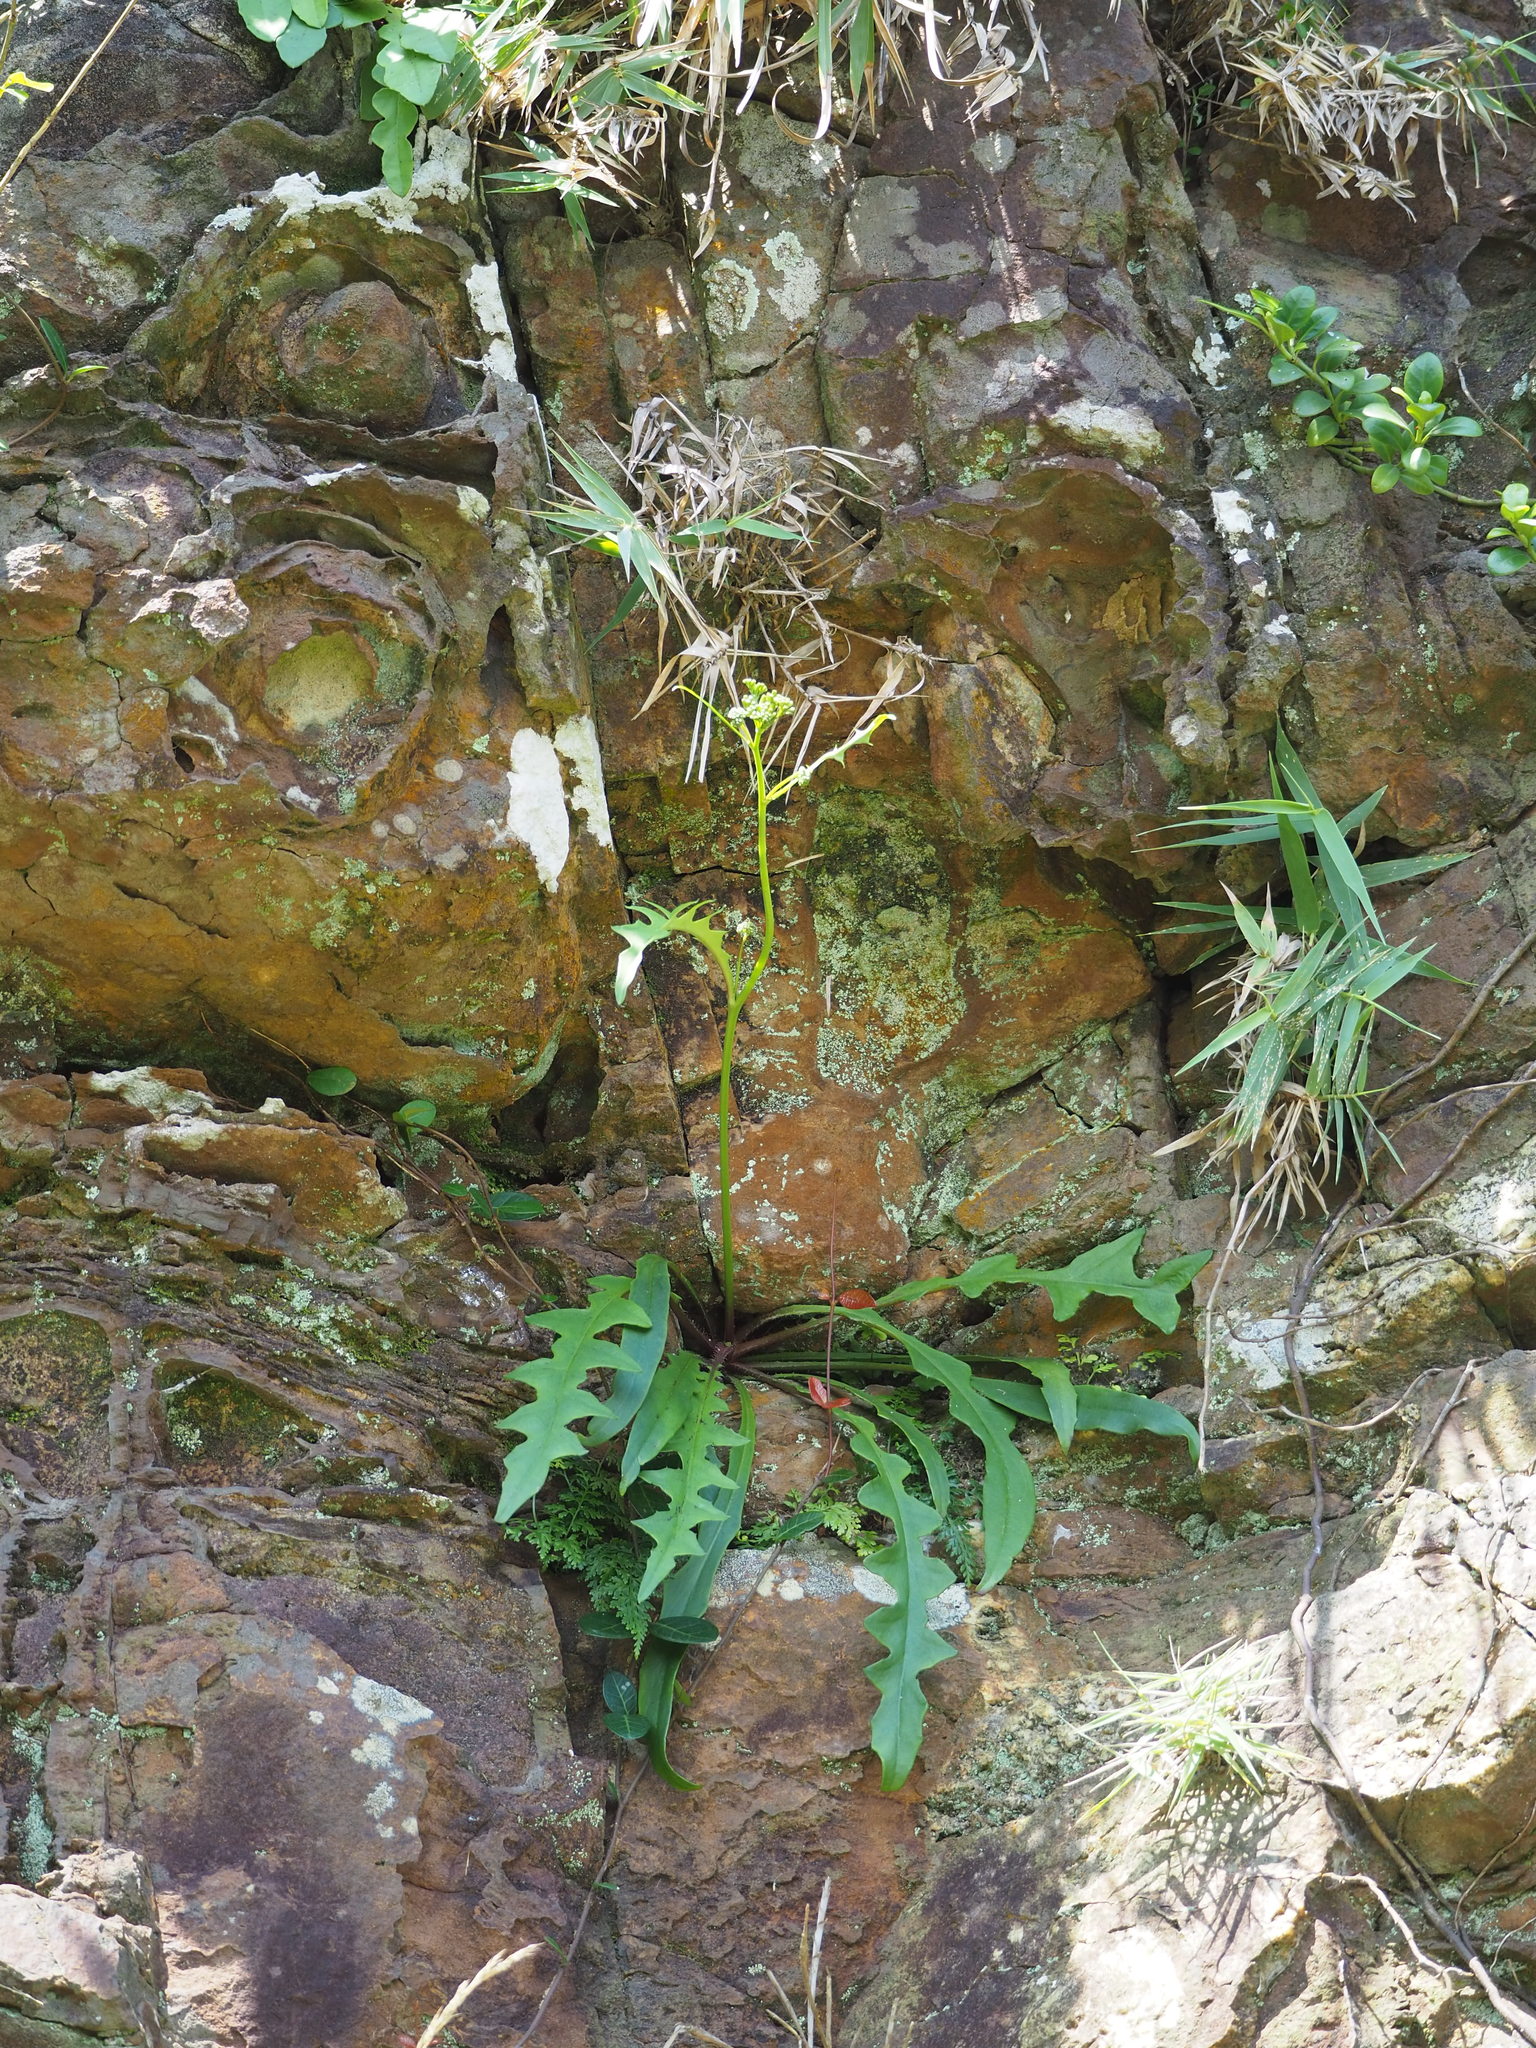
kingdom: Plantae
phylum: Tracheophyta
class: Magnoliopsida
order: Asterales
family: Asteraceae
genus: Ixeridium
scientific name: Ixeridium laevigatum
